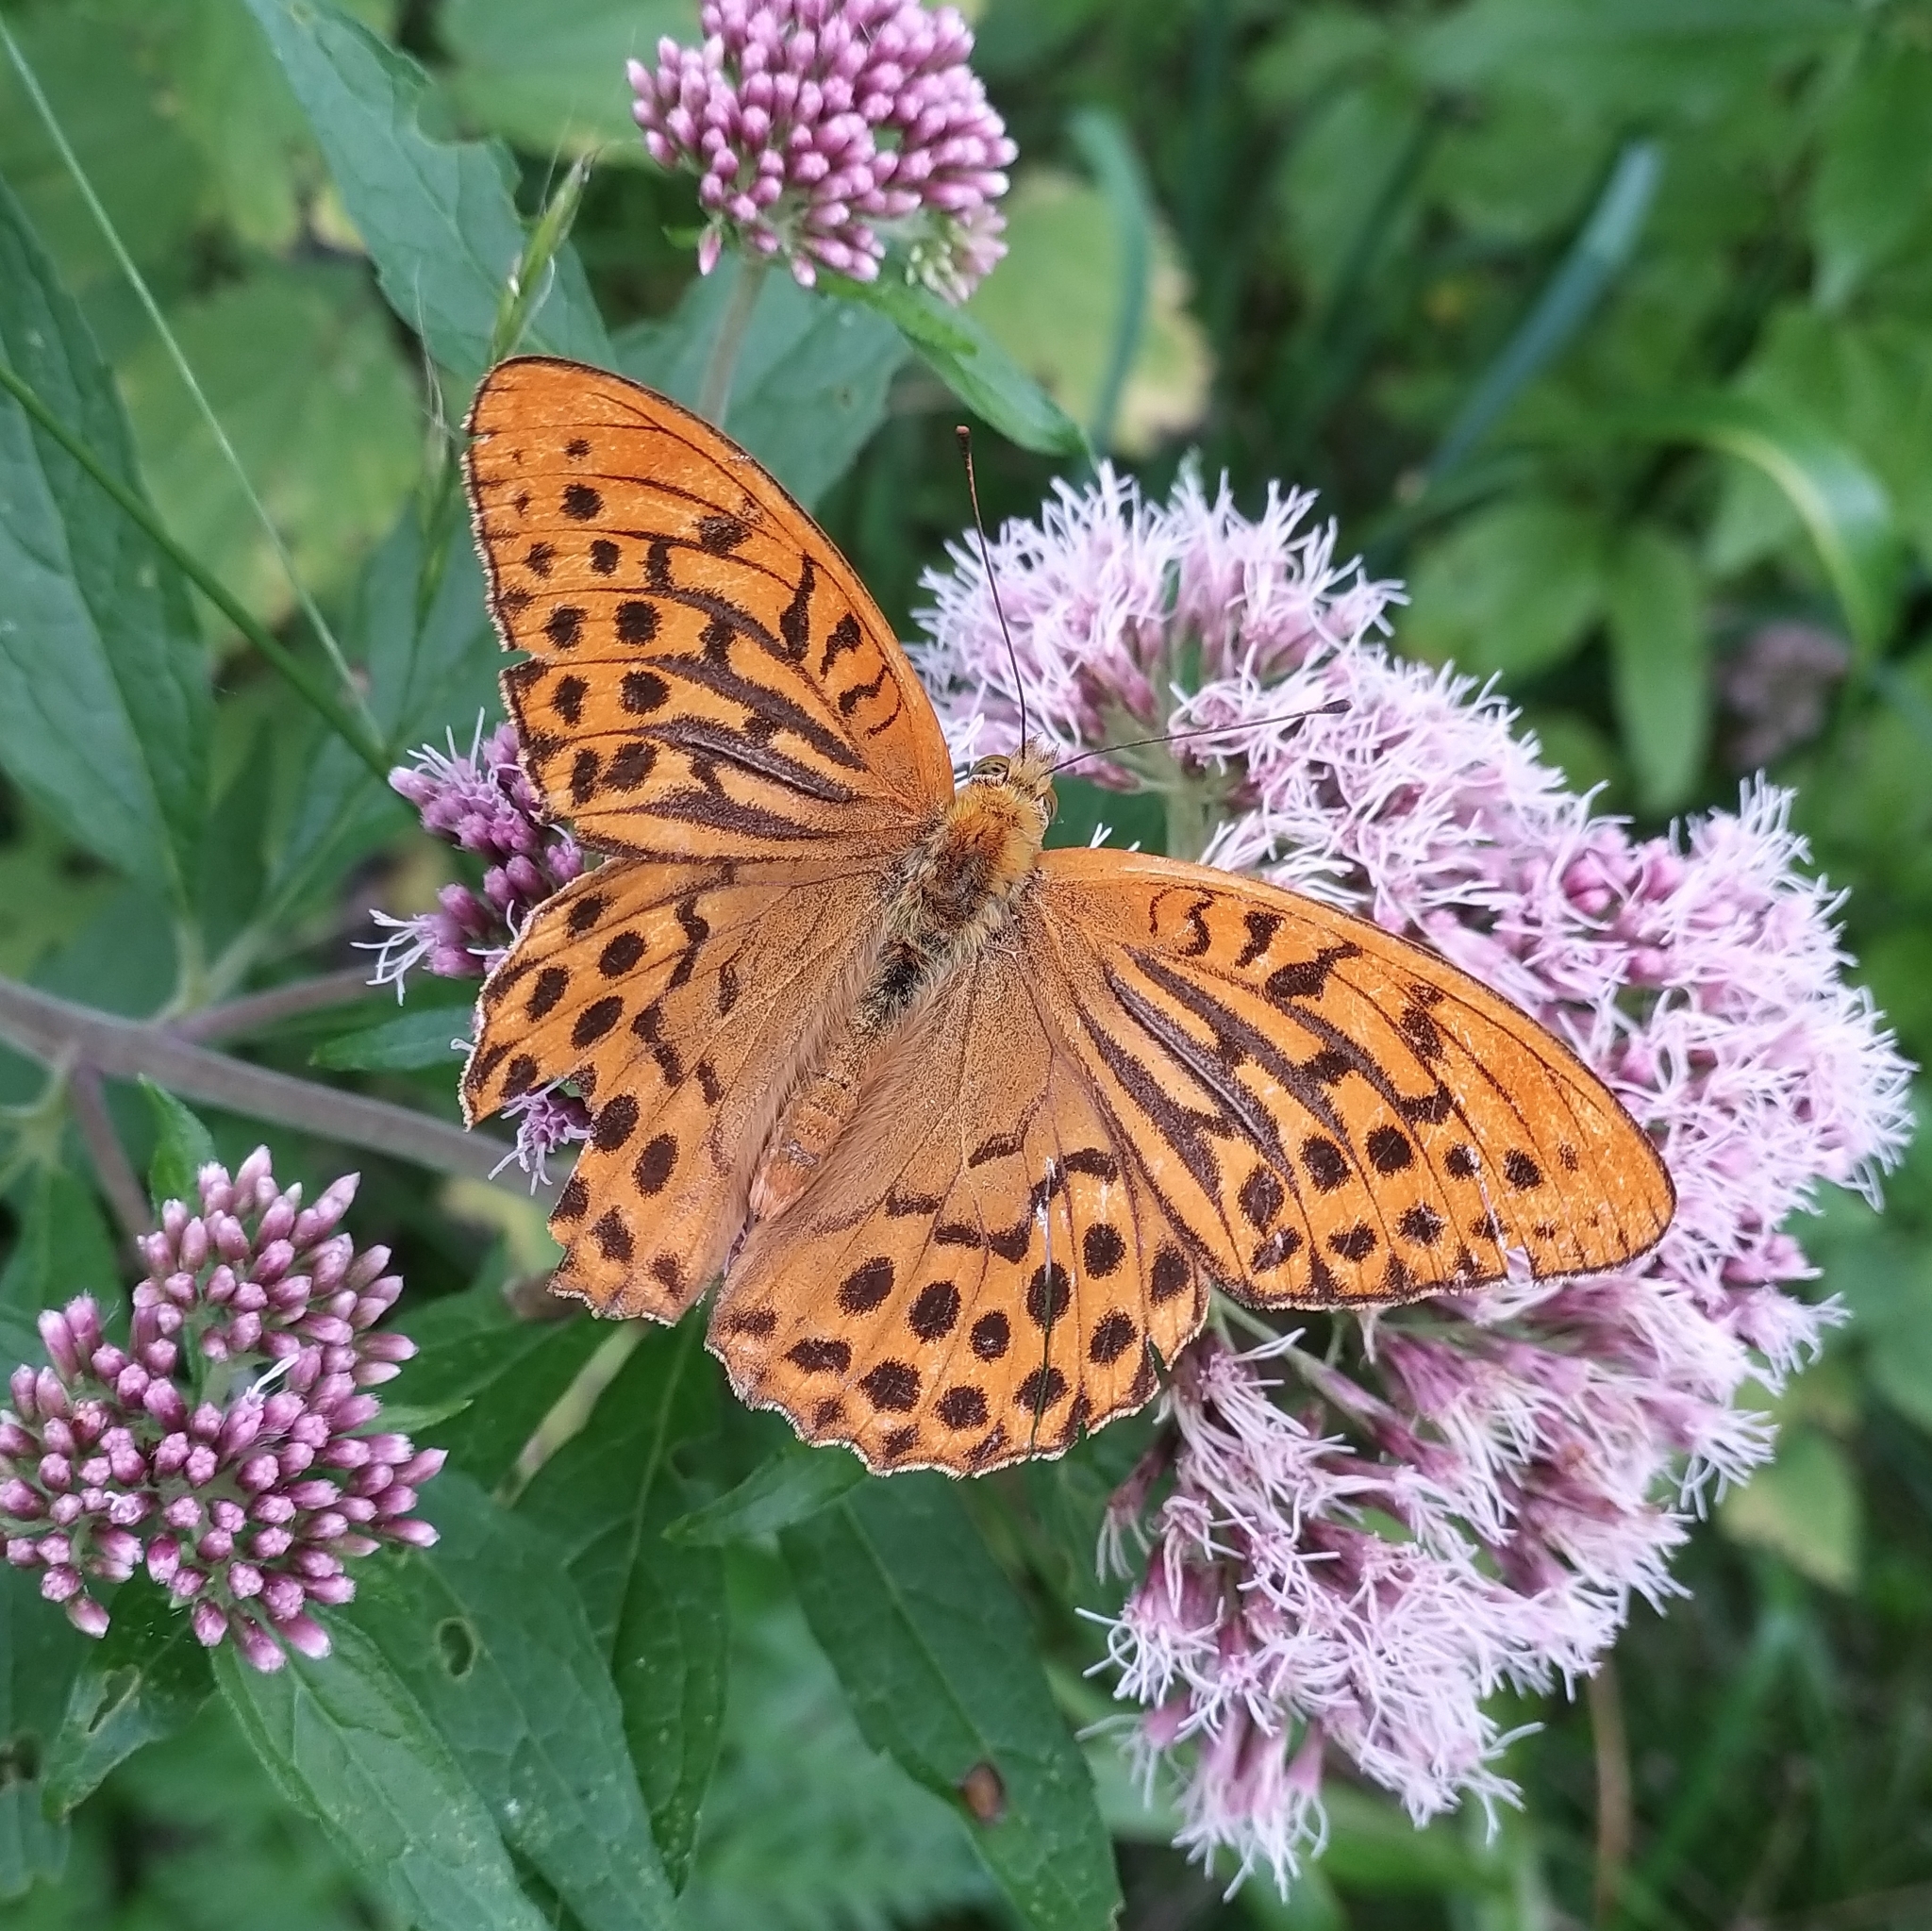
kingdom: Animalia
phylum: Arthropoda
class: Insecta
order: Lepidoptera
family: Nymphalidae
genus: Argynnis
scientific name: Argynnis paphia
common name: Silver-washed fritillary
